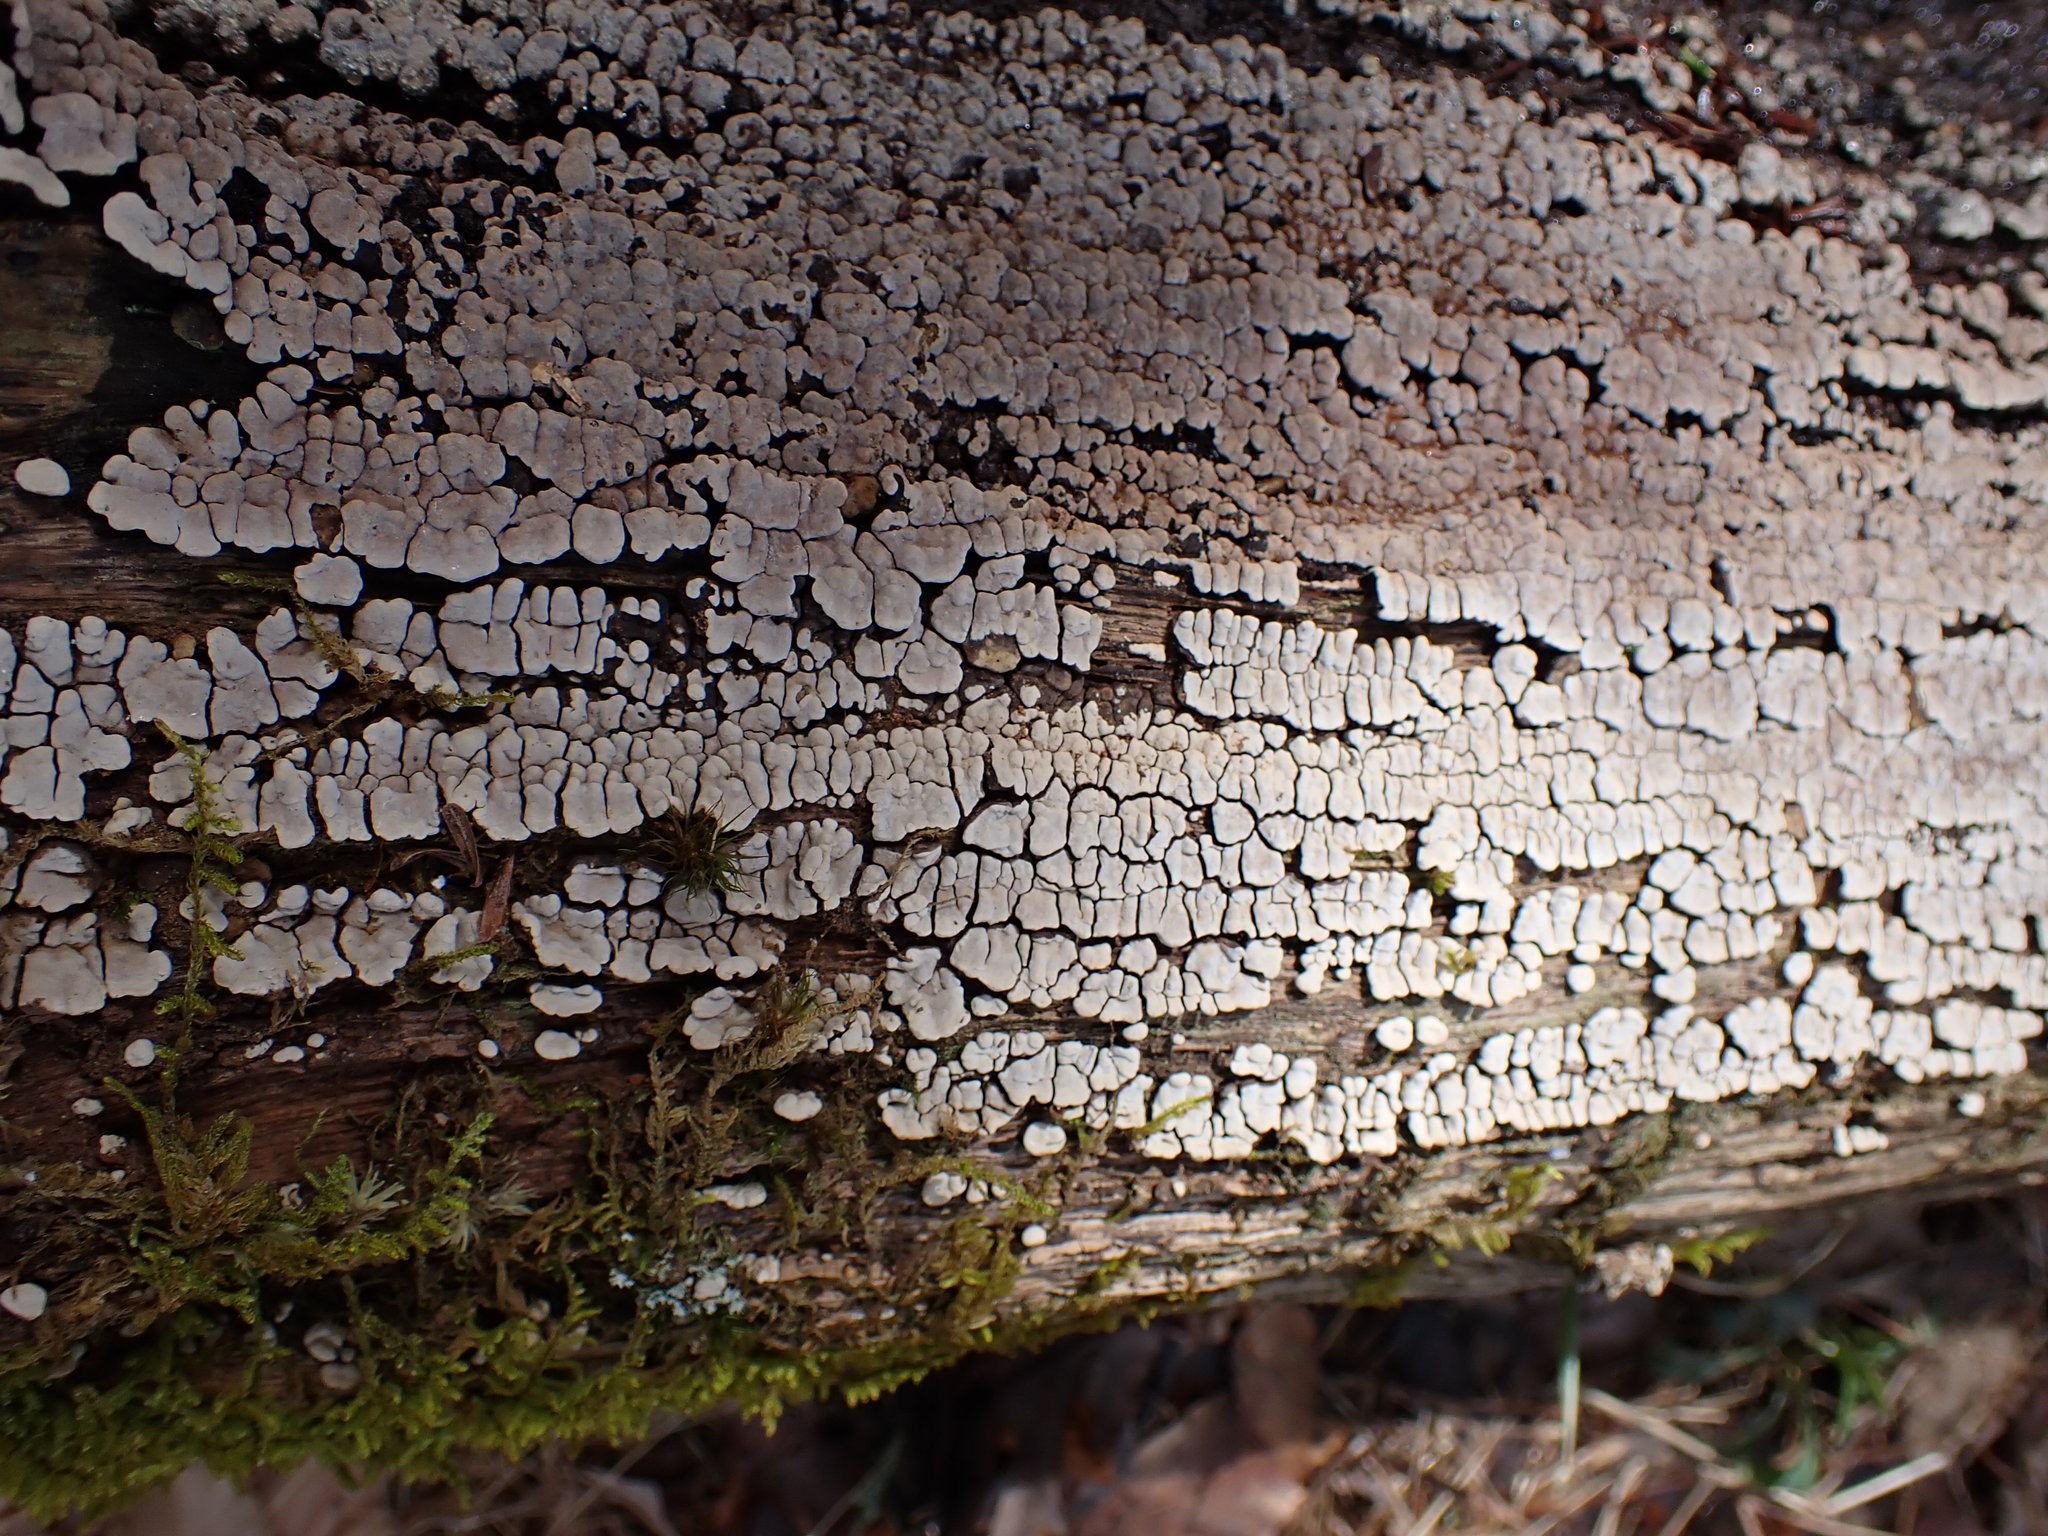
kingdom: Fungi
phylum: Basidiomycota
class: Agaricomycetes
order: Russulales
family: Stereaceae
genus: Xylobolus
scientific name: Xylobolus frustulatus
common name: Ceramic parchment
